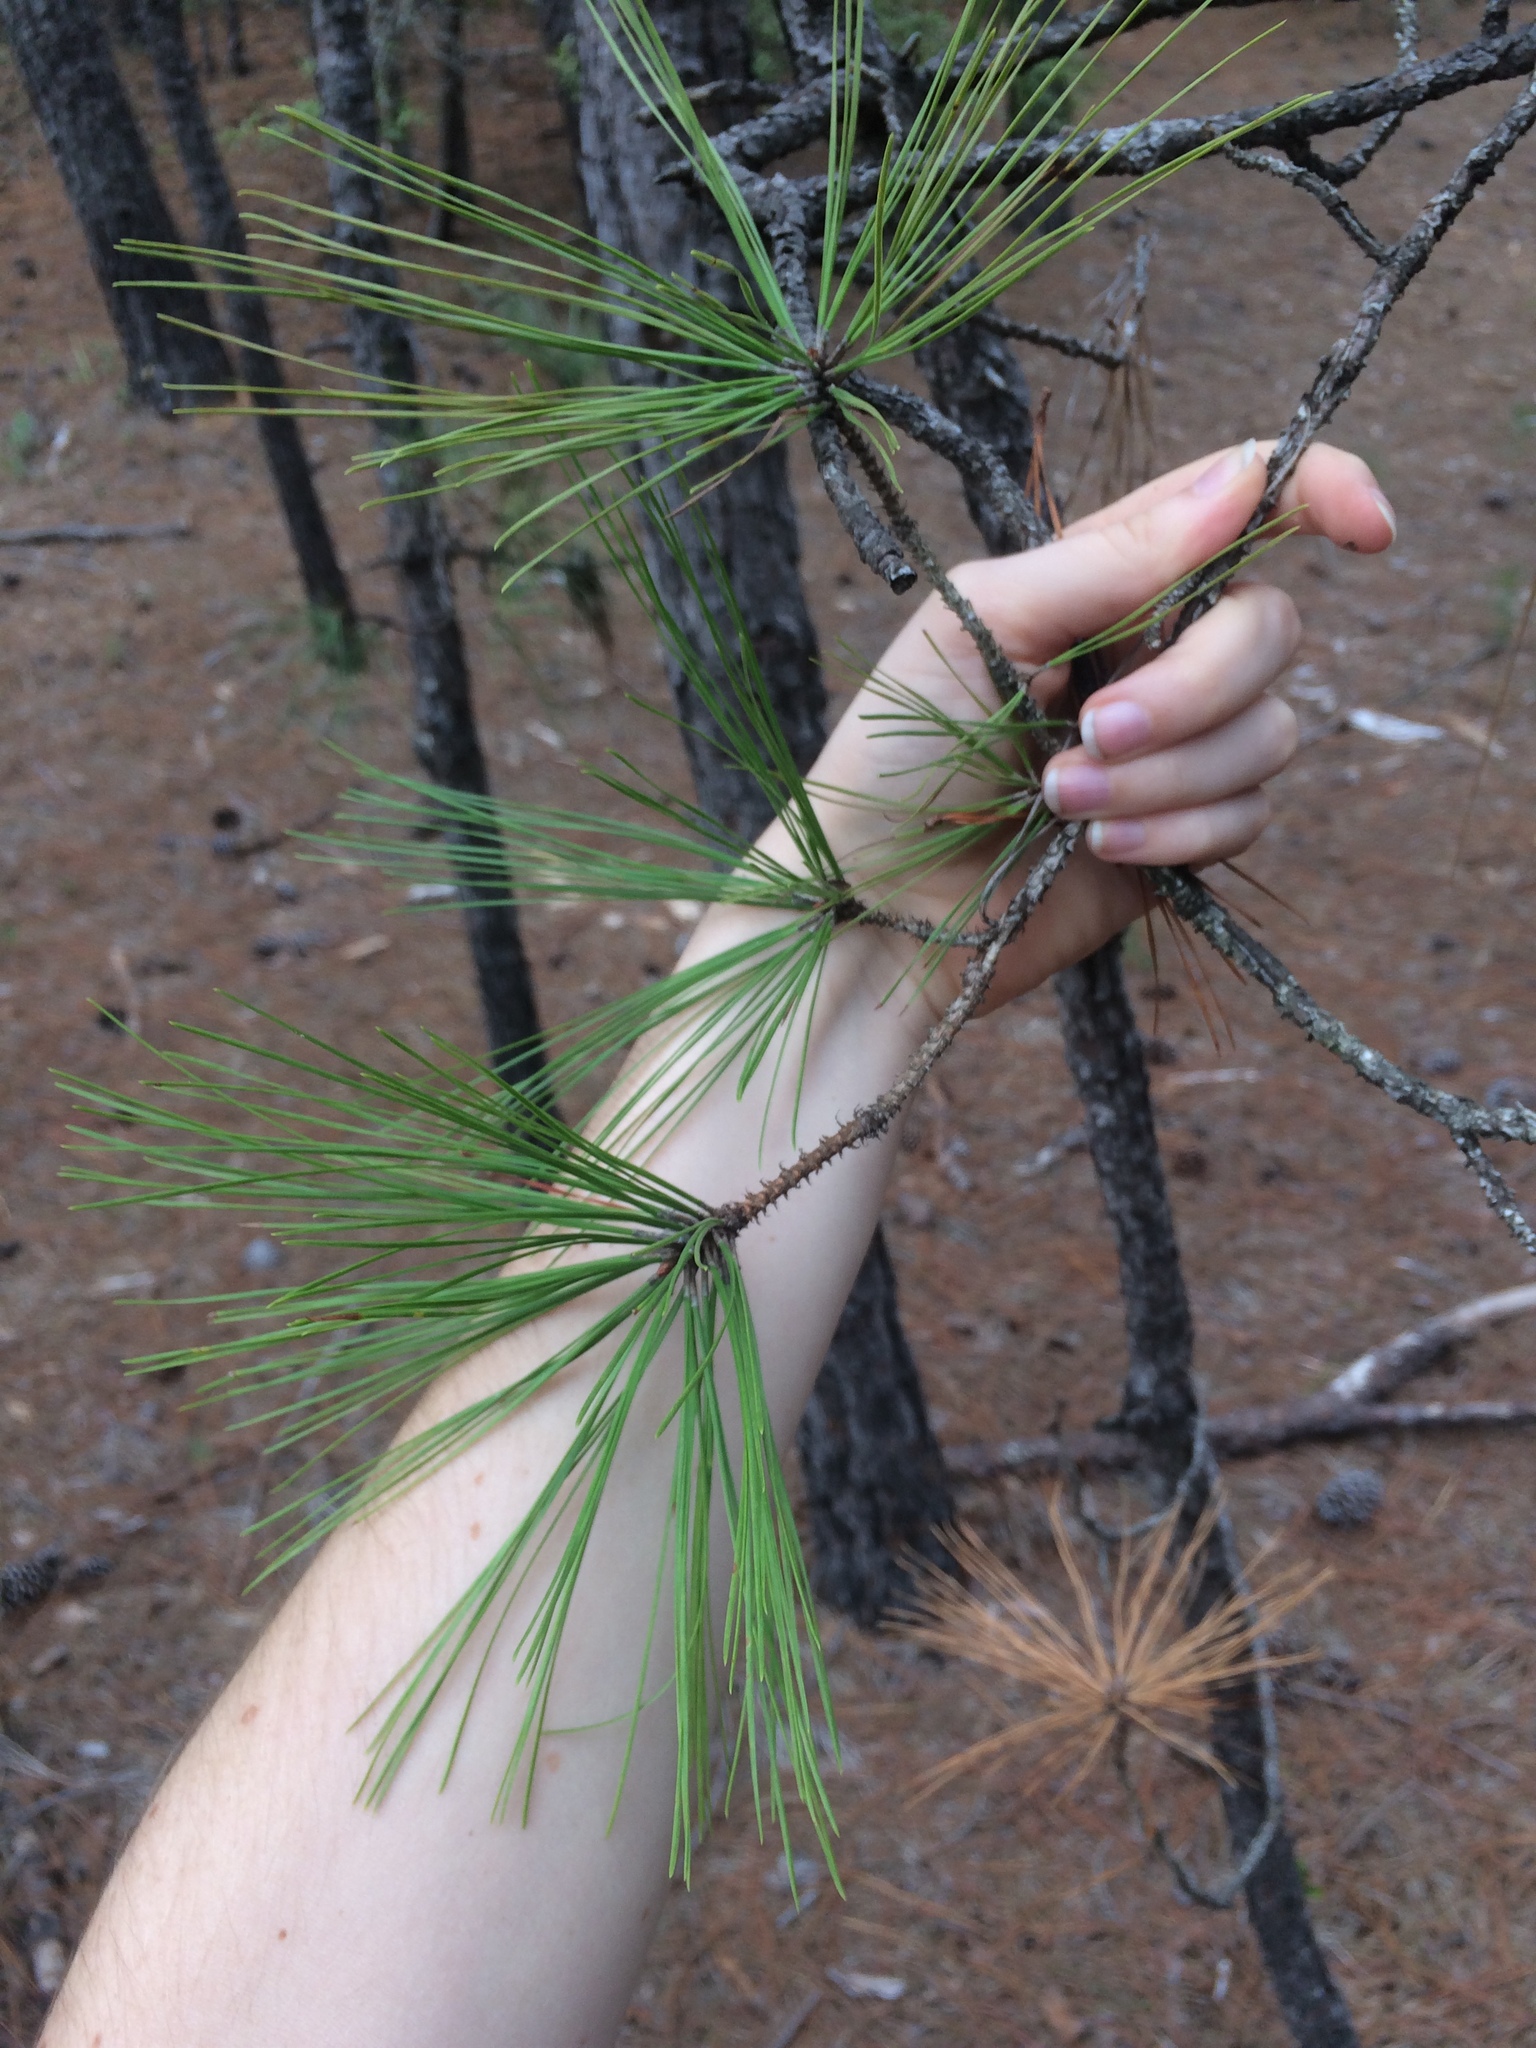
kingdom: Plantae
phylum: Tracheophyta
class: Pinopsida
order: Pinales
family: Pinaceae
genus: Pinus
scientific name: Pinus taeda
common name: Loblolly pine
